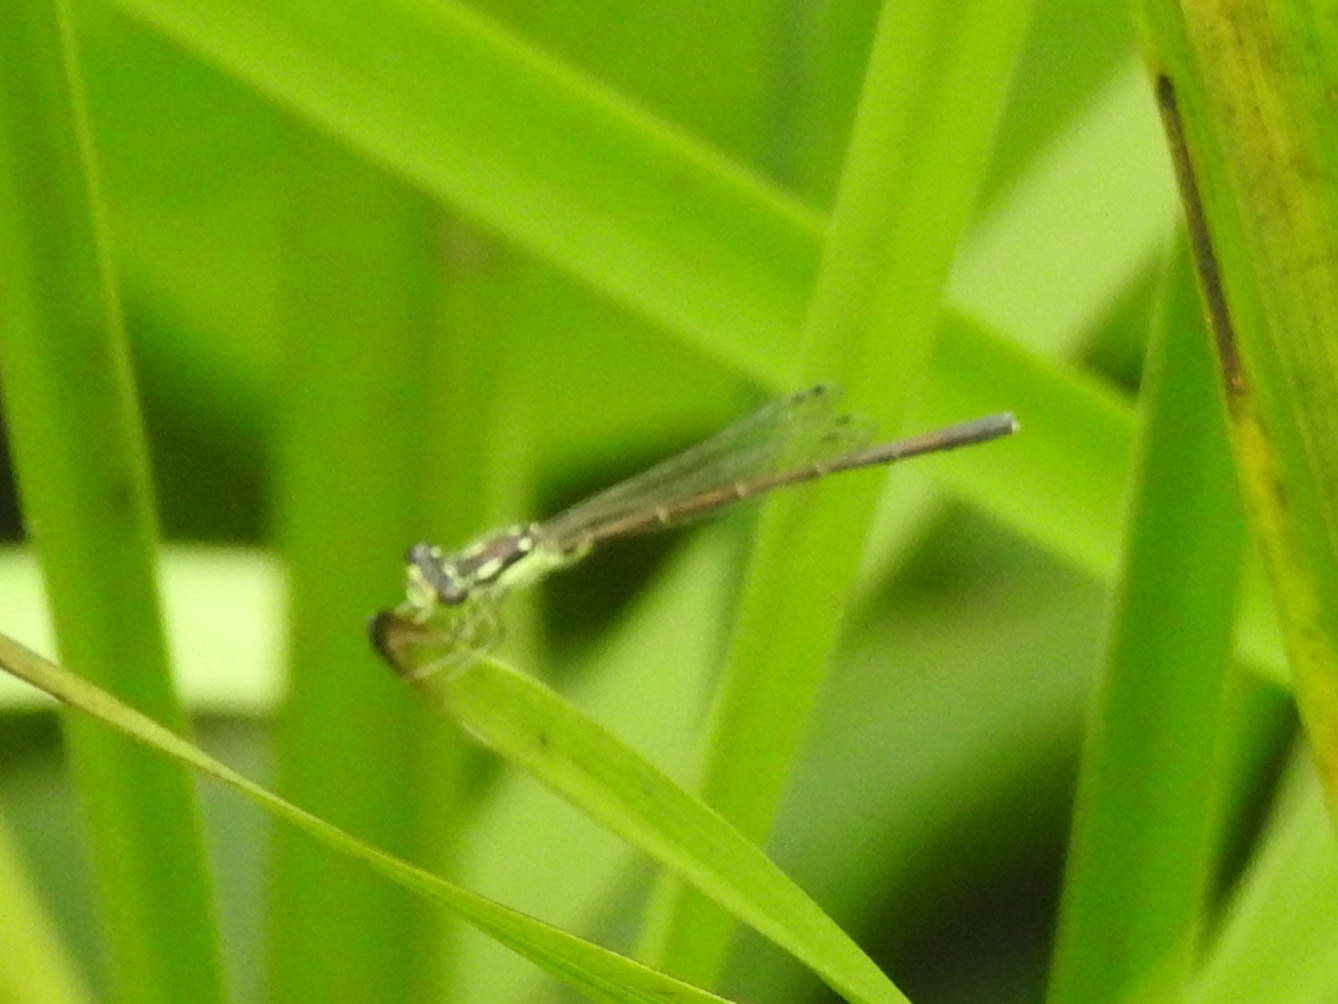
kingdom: Animalia
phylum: Arthropoda
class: Insecta
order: Odonata
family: Coenagrionidae
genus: Ischnura
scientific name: Ischnura posita
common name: Fragile forktail
